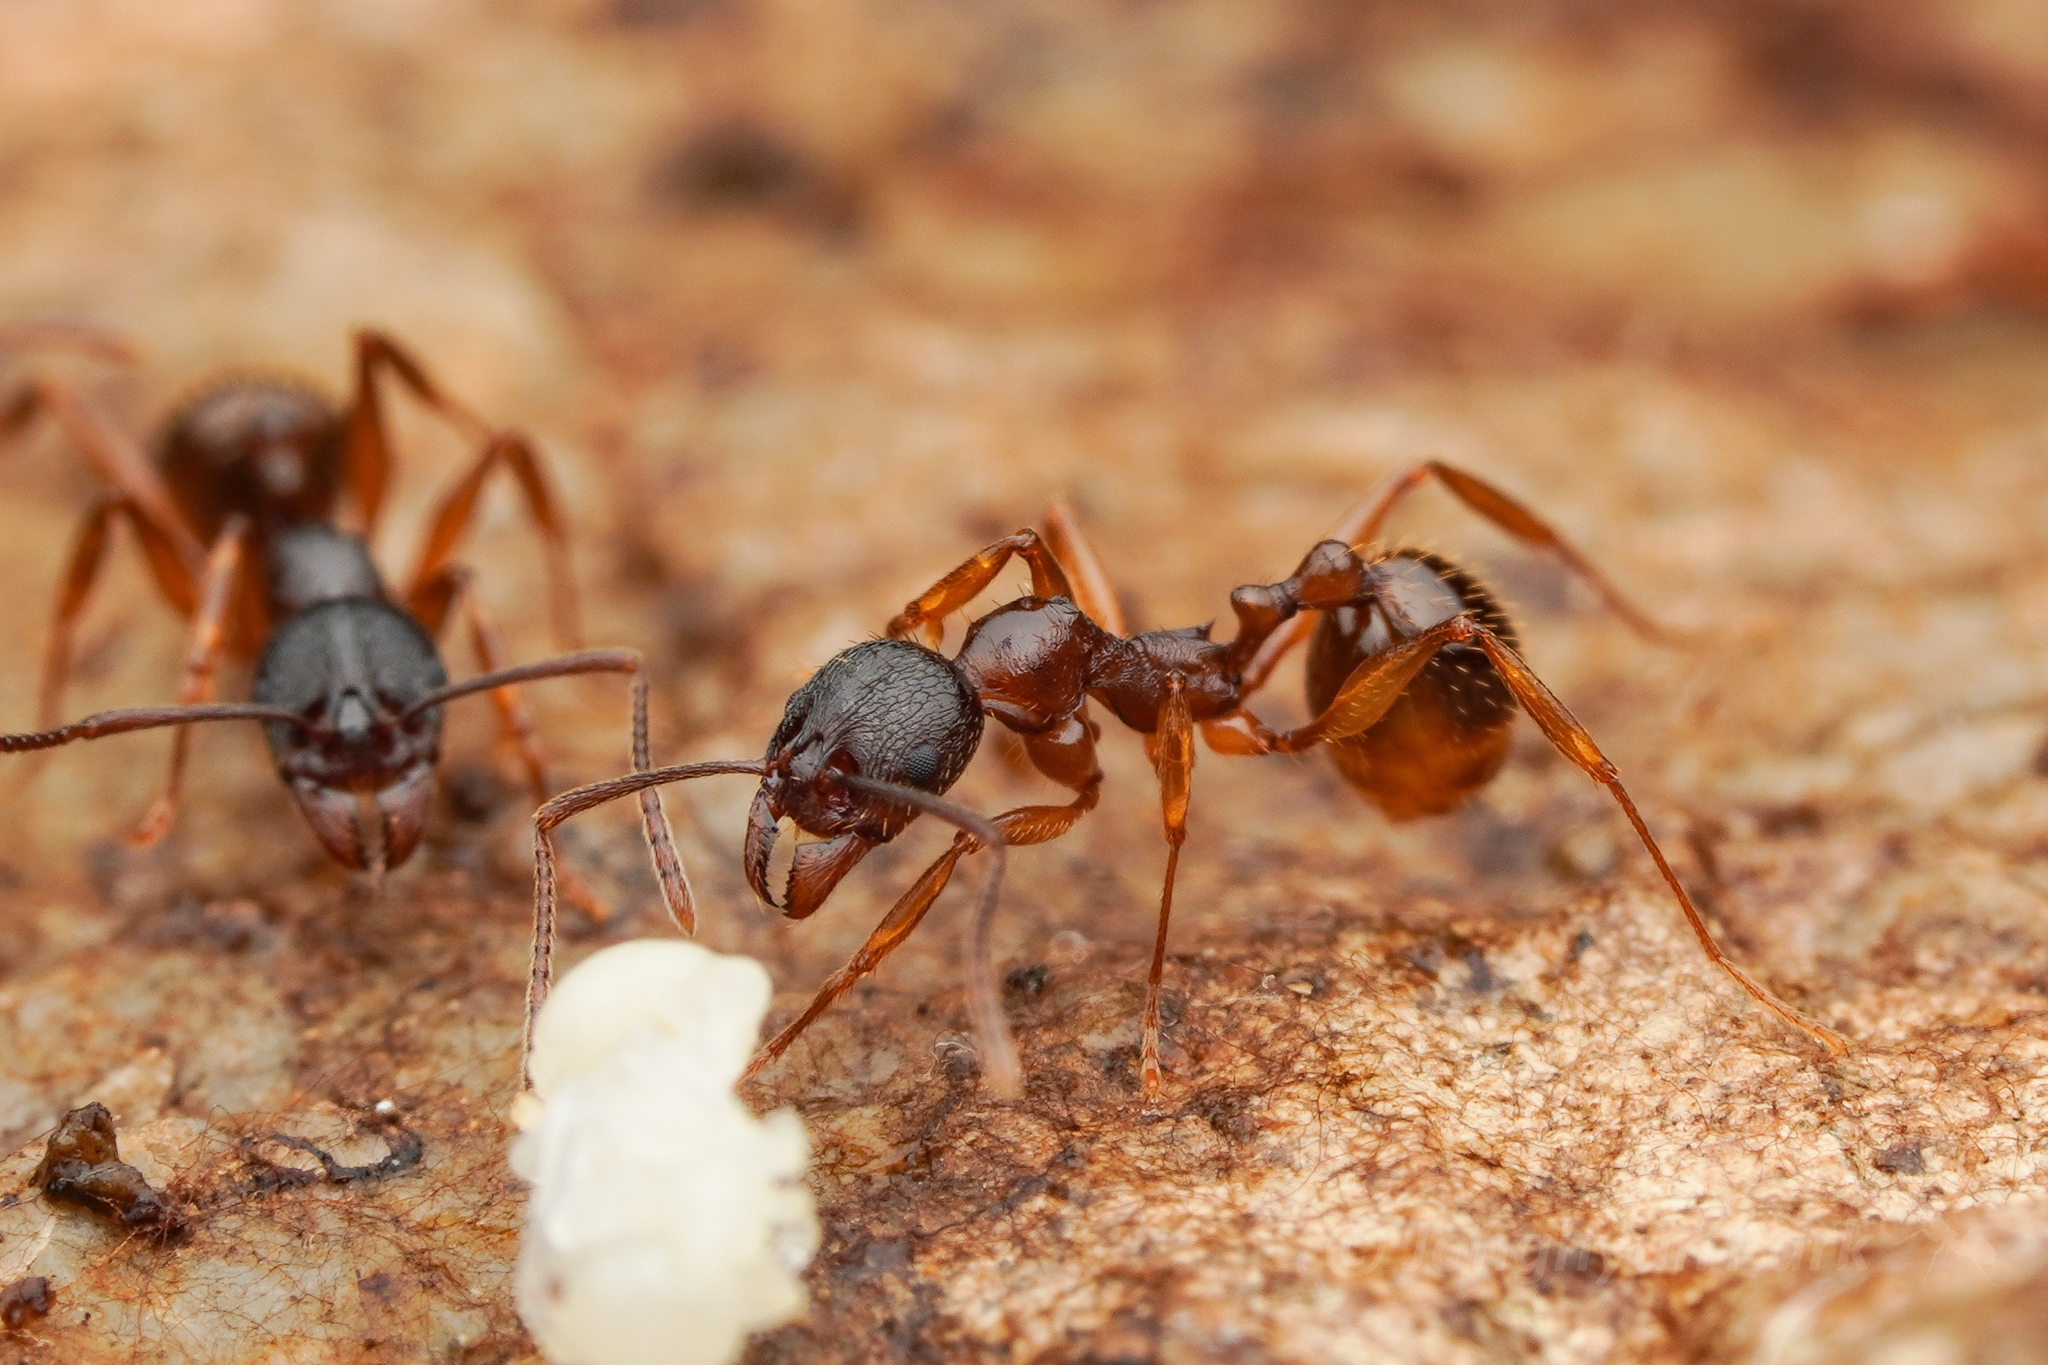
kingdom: Animalia
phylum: Arthropoda
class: Insecta
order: Hymenoptera
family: Formicidae
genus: Aphaenogaster
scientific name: Aphaenogaster japonica
